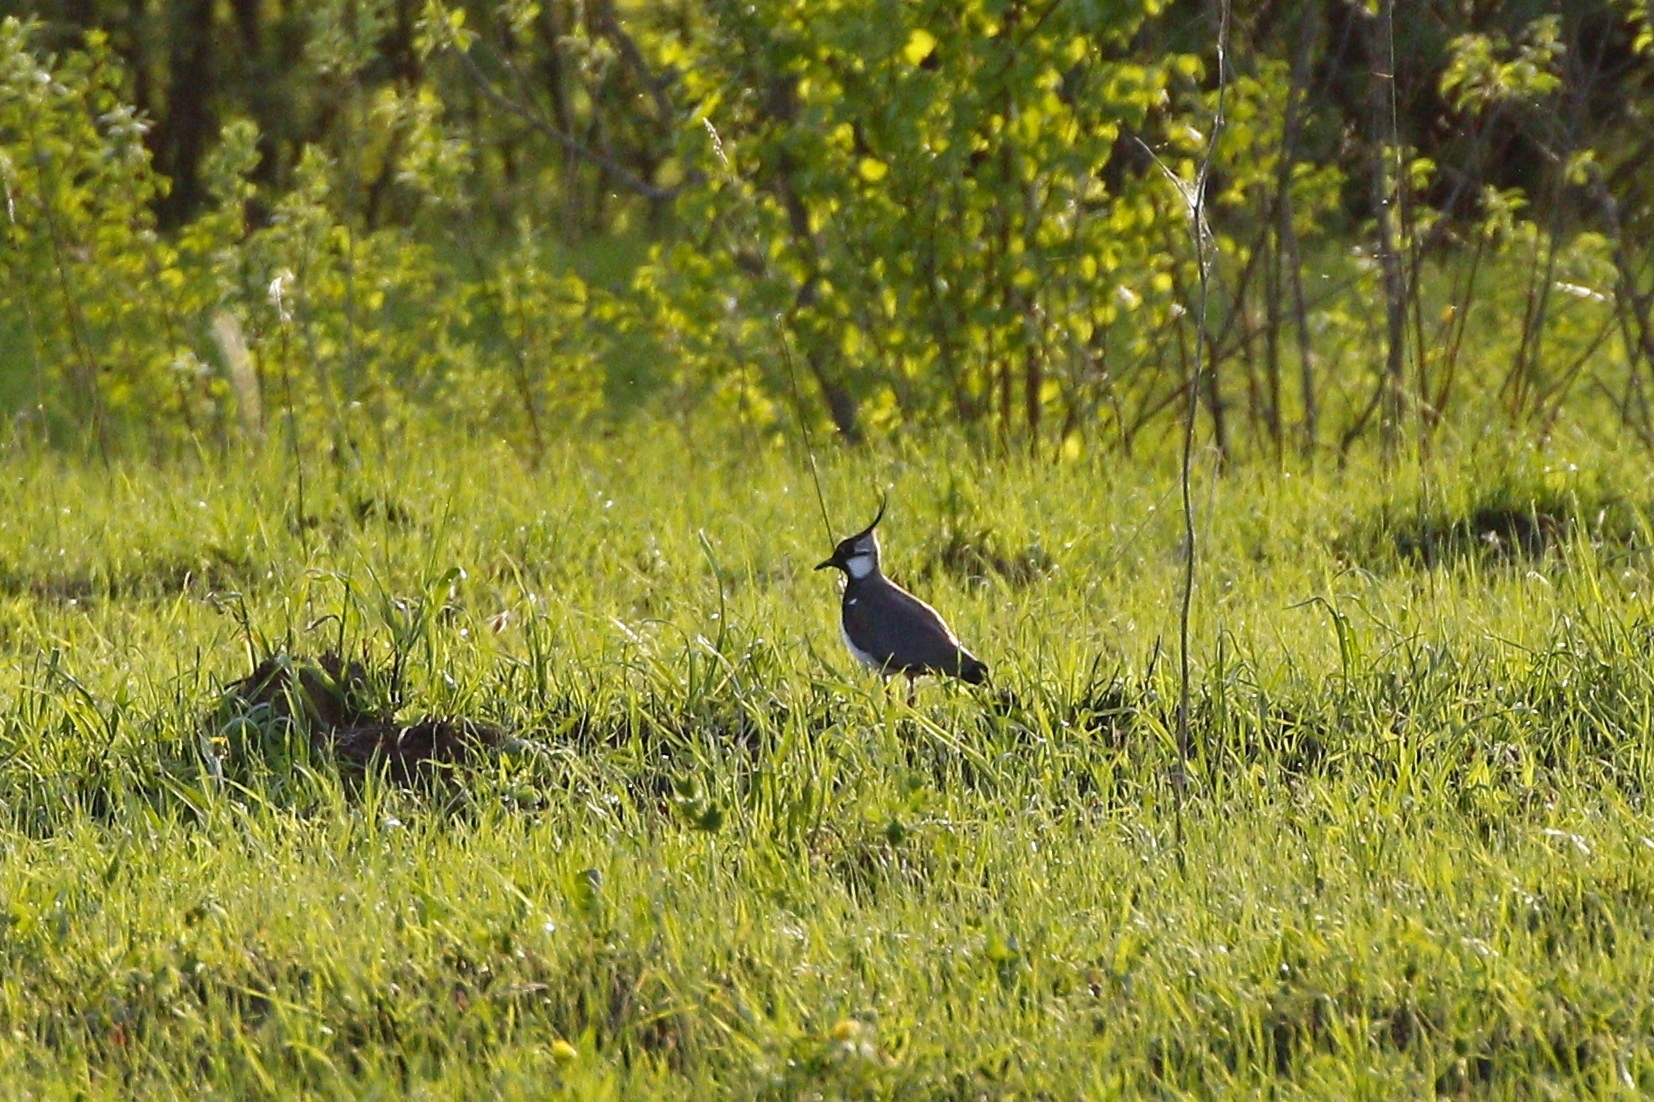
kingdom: Animalia
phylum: Chordata
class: Aves
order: Charadriiformes
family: Charadriidae
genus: Vanellus
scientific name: Vanellus vanellus
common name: Northern lapwing
